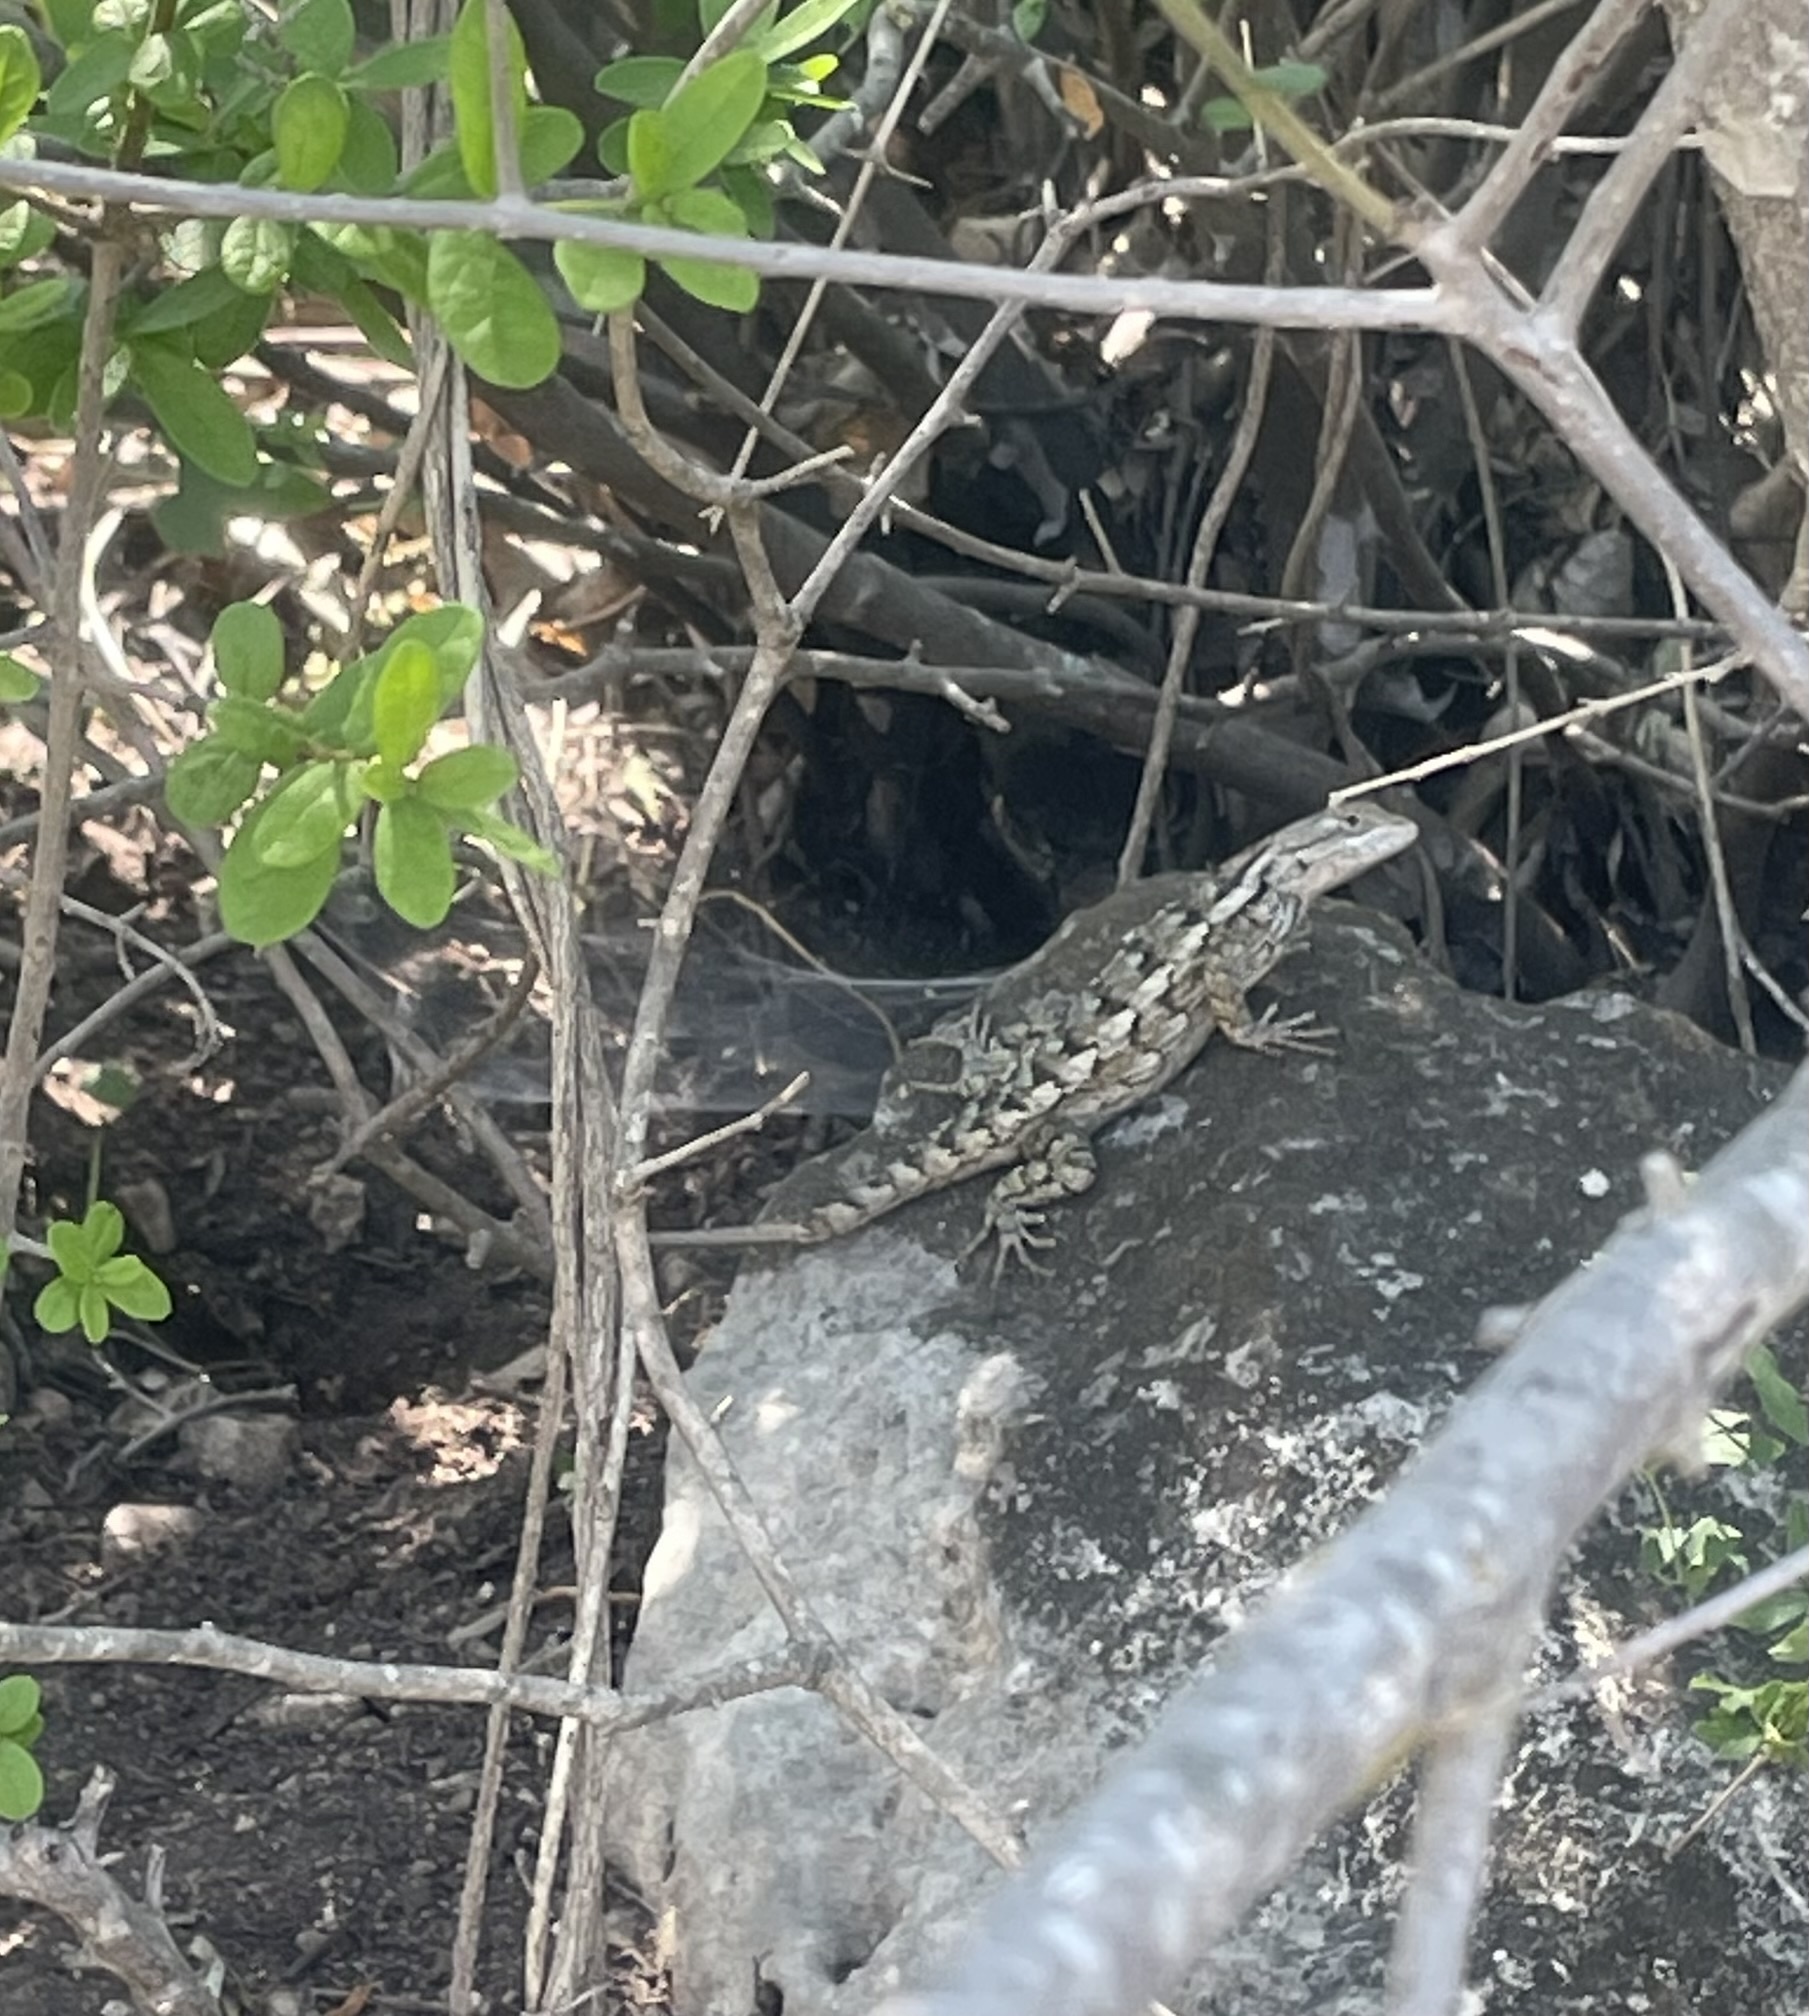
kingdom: Animalia
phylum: Chordata
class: Squamata
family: Phrynosomatidae
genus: Sceloporus
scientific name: Sceloporus olivaceus
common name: Texas spiny lizard
